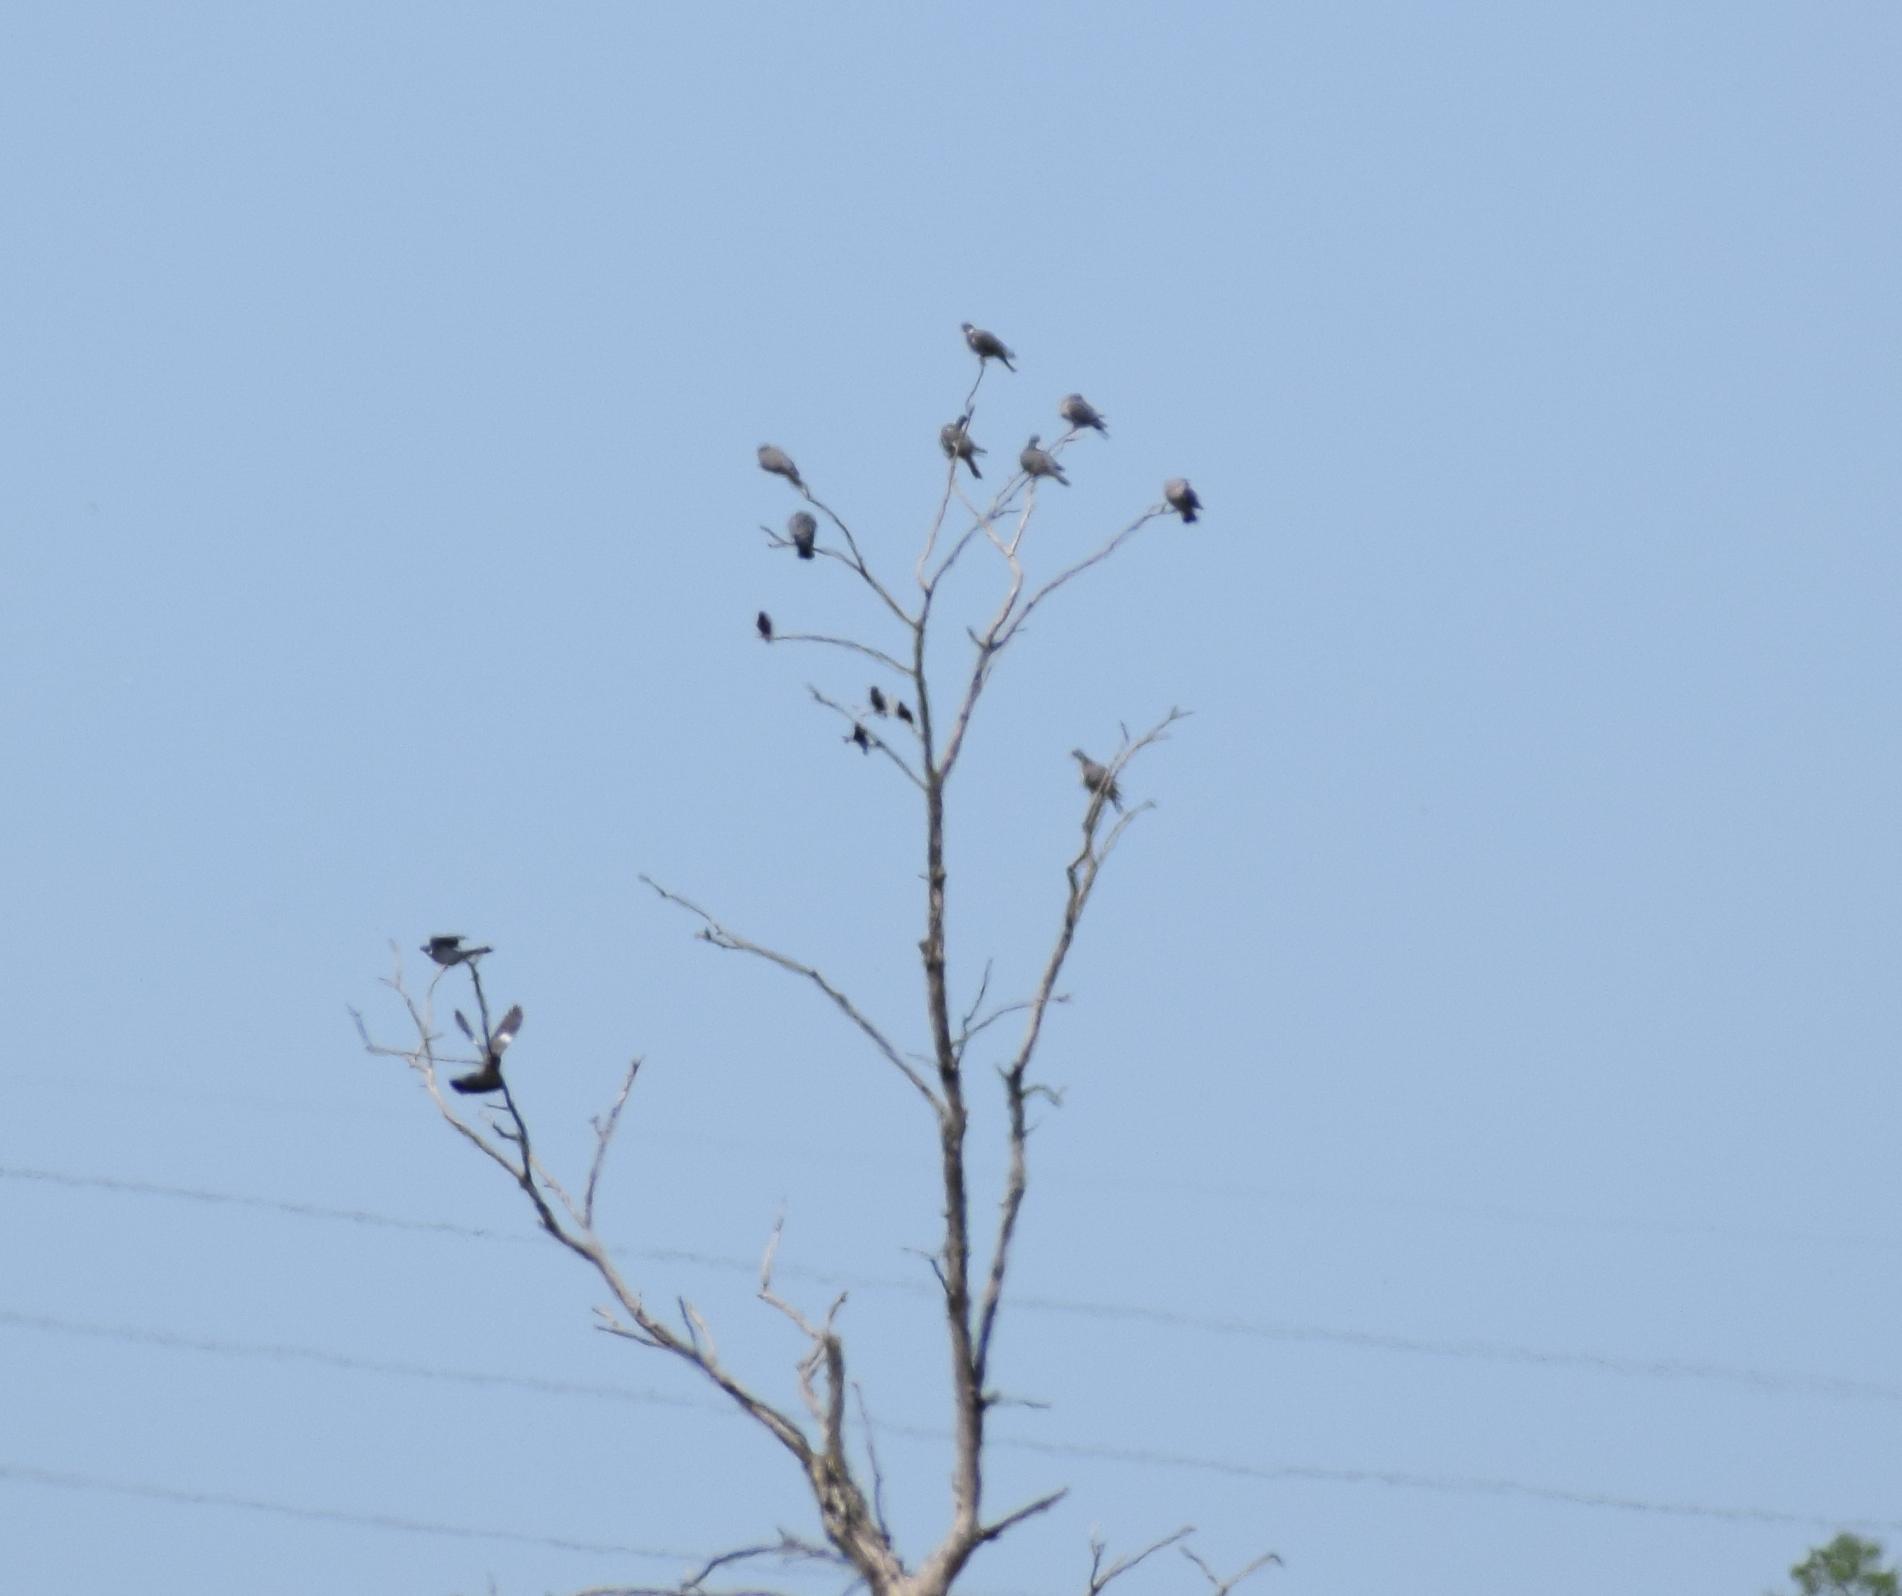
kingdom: Animalia
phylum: Chordata
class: Aves
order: Columbiformes
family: Columbidae
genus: Columba
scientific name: Columba palumbus
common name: Common wood pigeon
